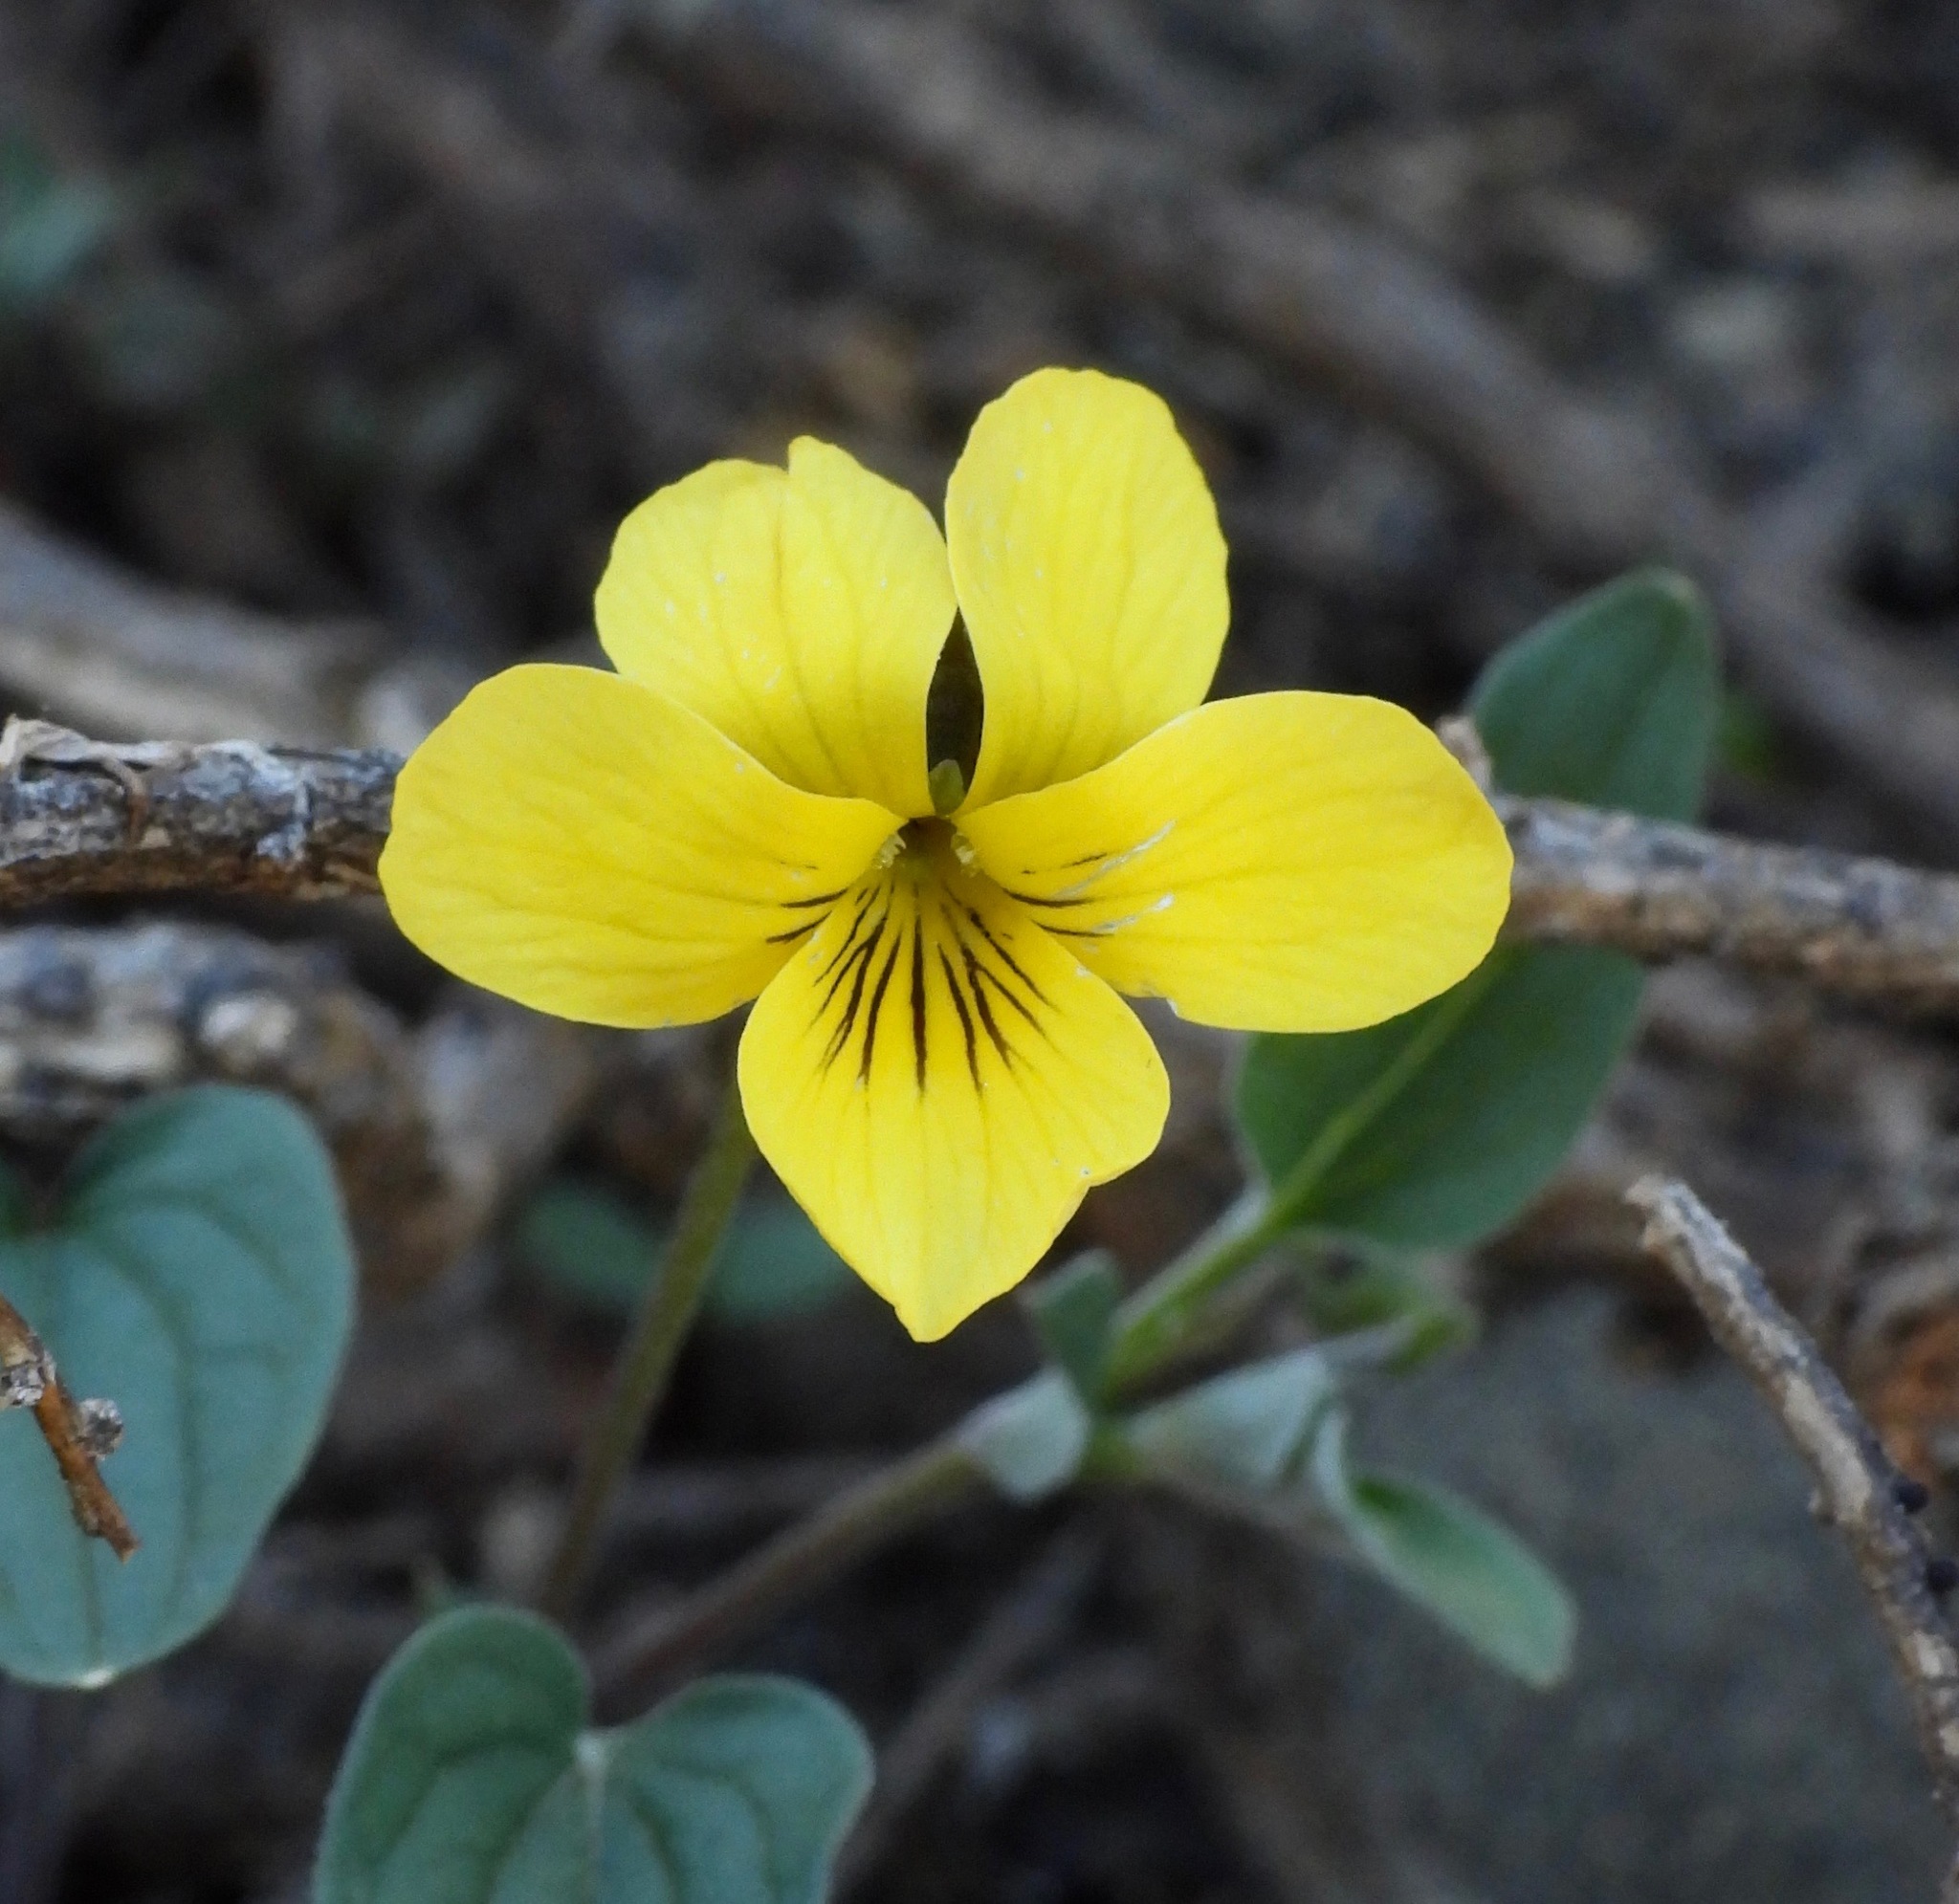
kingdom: Plantae
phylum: Tracheophyta
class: Magnoliopsida
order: Malpighiales
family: Violaceae
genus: Viola
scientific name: Viola purpurea
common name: Pine violet
